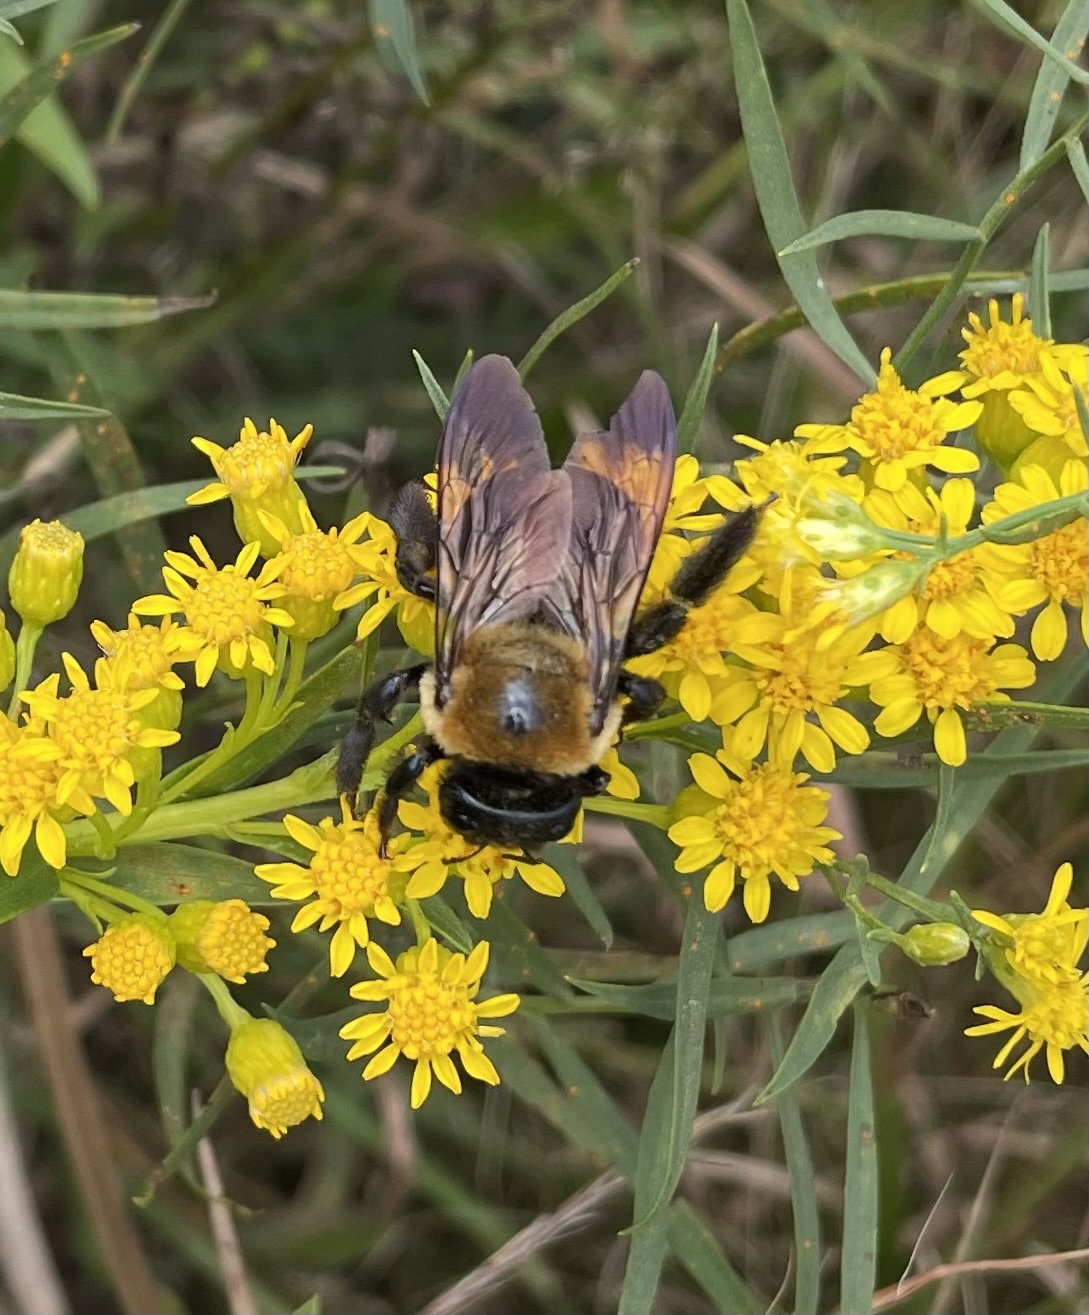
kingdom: Animalia
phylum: Arthropoda
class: Insecta
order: Hymenoptera
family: Apidae
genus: Xylocopa
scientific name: Xylocopa virginica
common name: Carpenter bee
